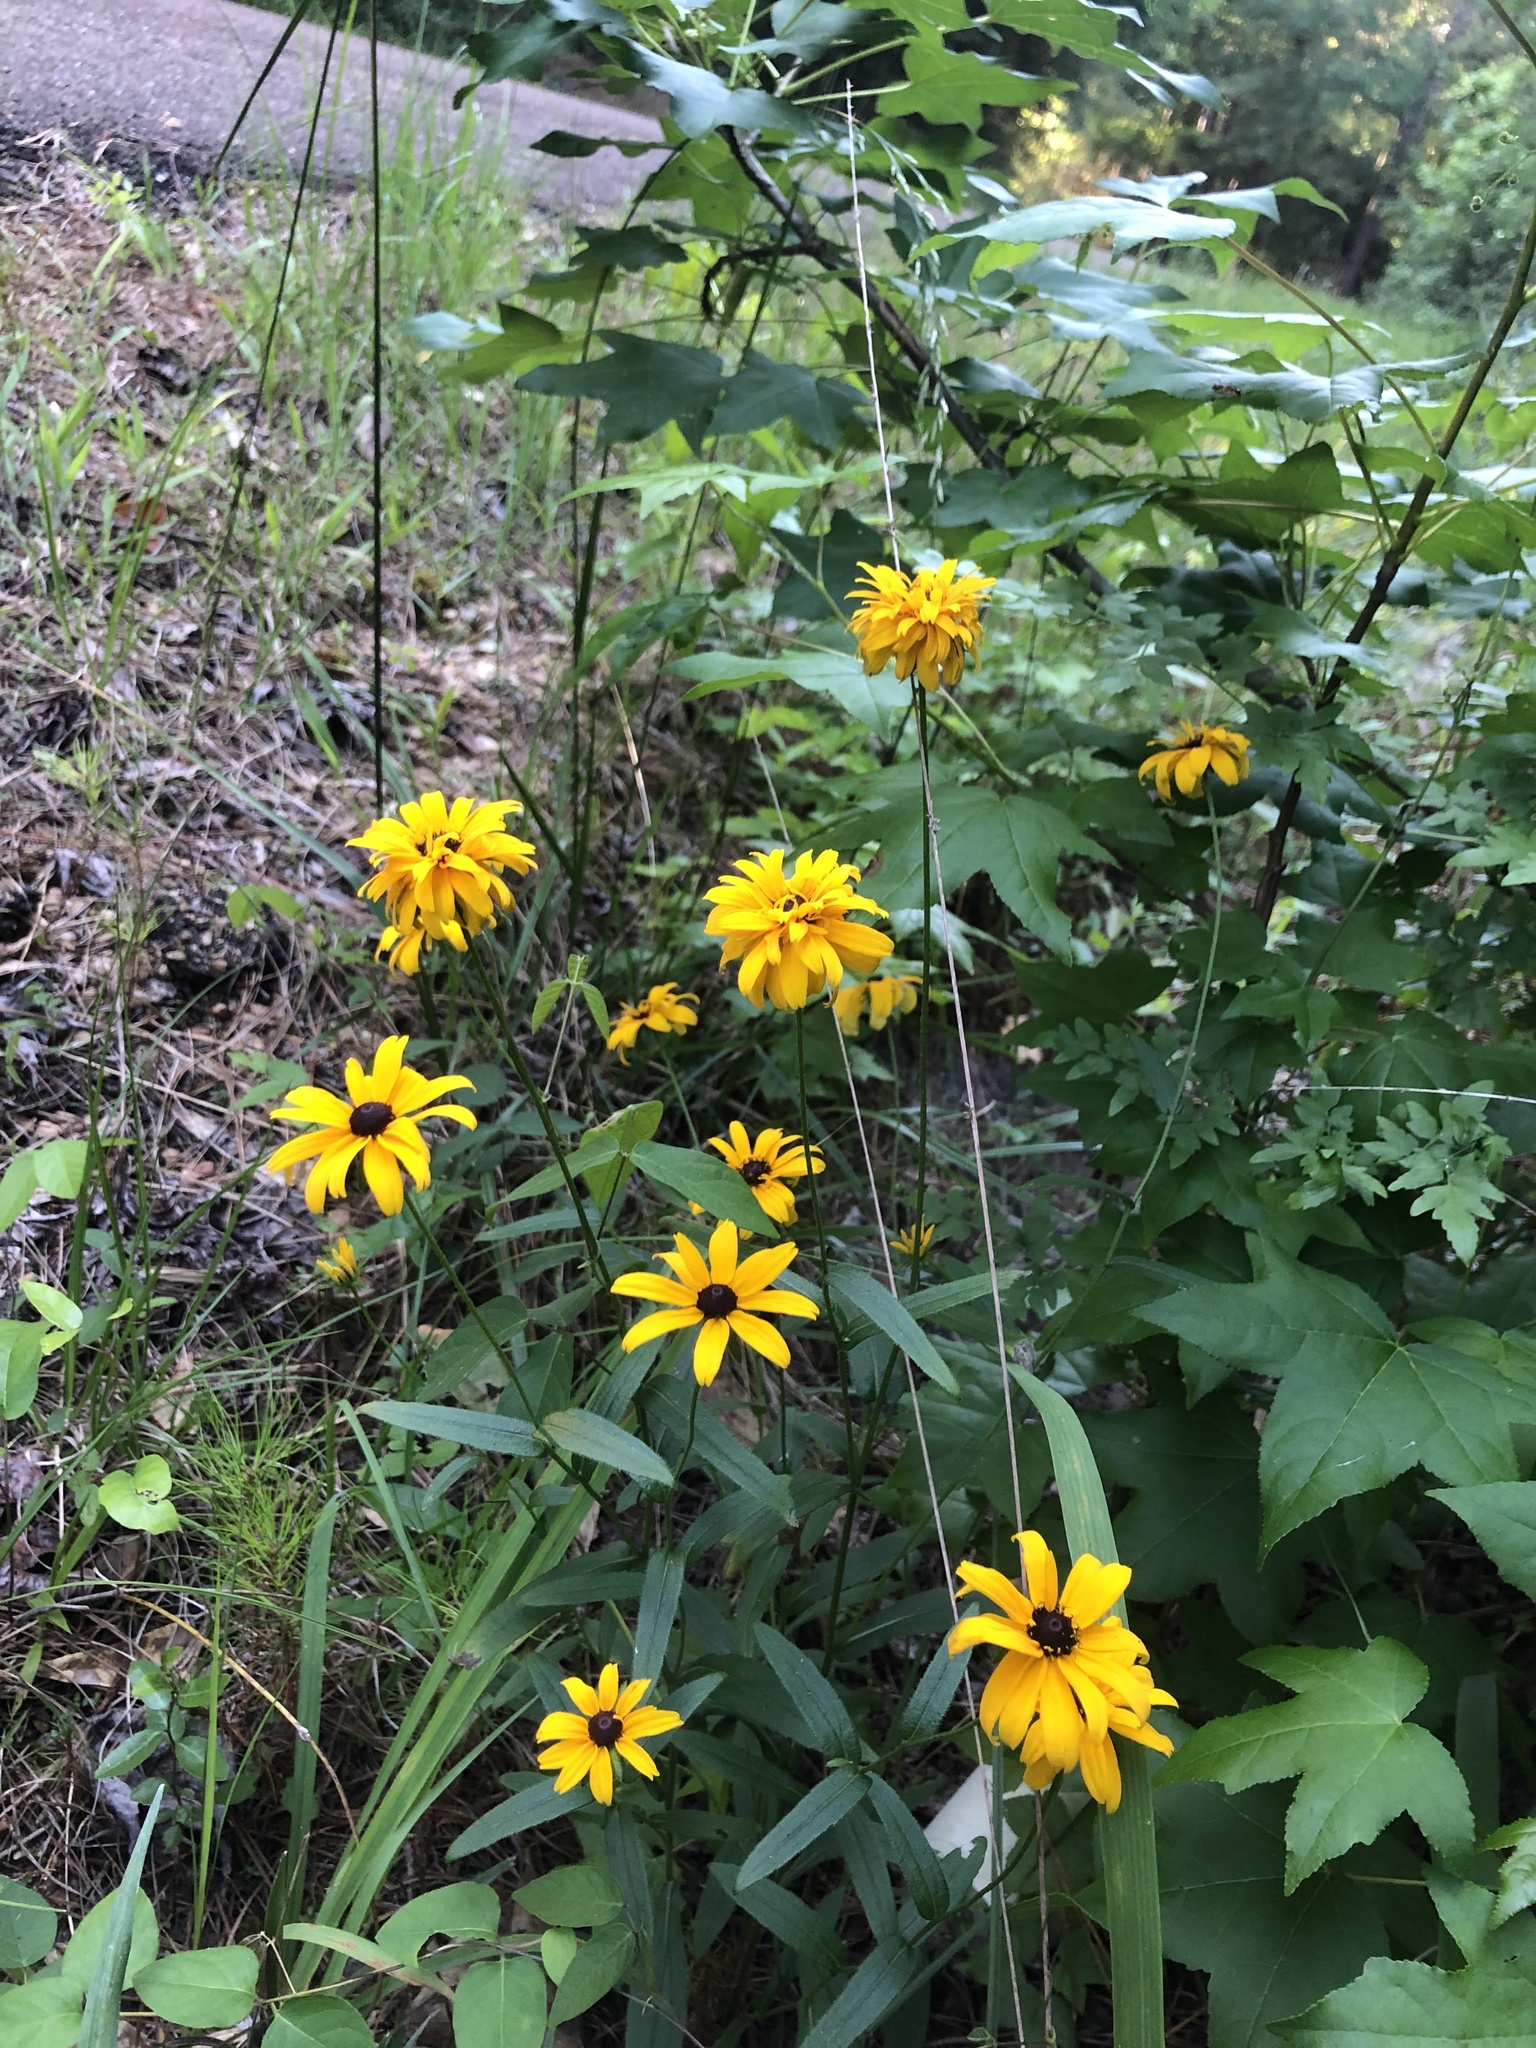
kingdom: Plantae
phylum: Tracheophyta
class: Magnoliopsida
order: Asterales
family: Asteraceae
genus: Rudbeckia
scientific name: Rudbeckia hirta
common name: Black-eyed-susan
